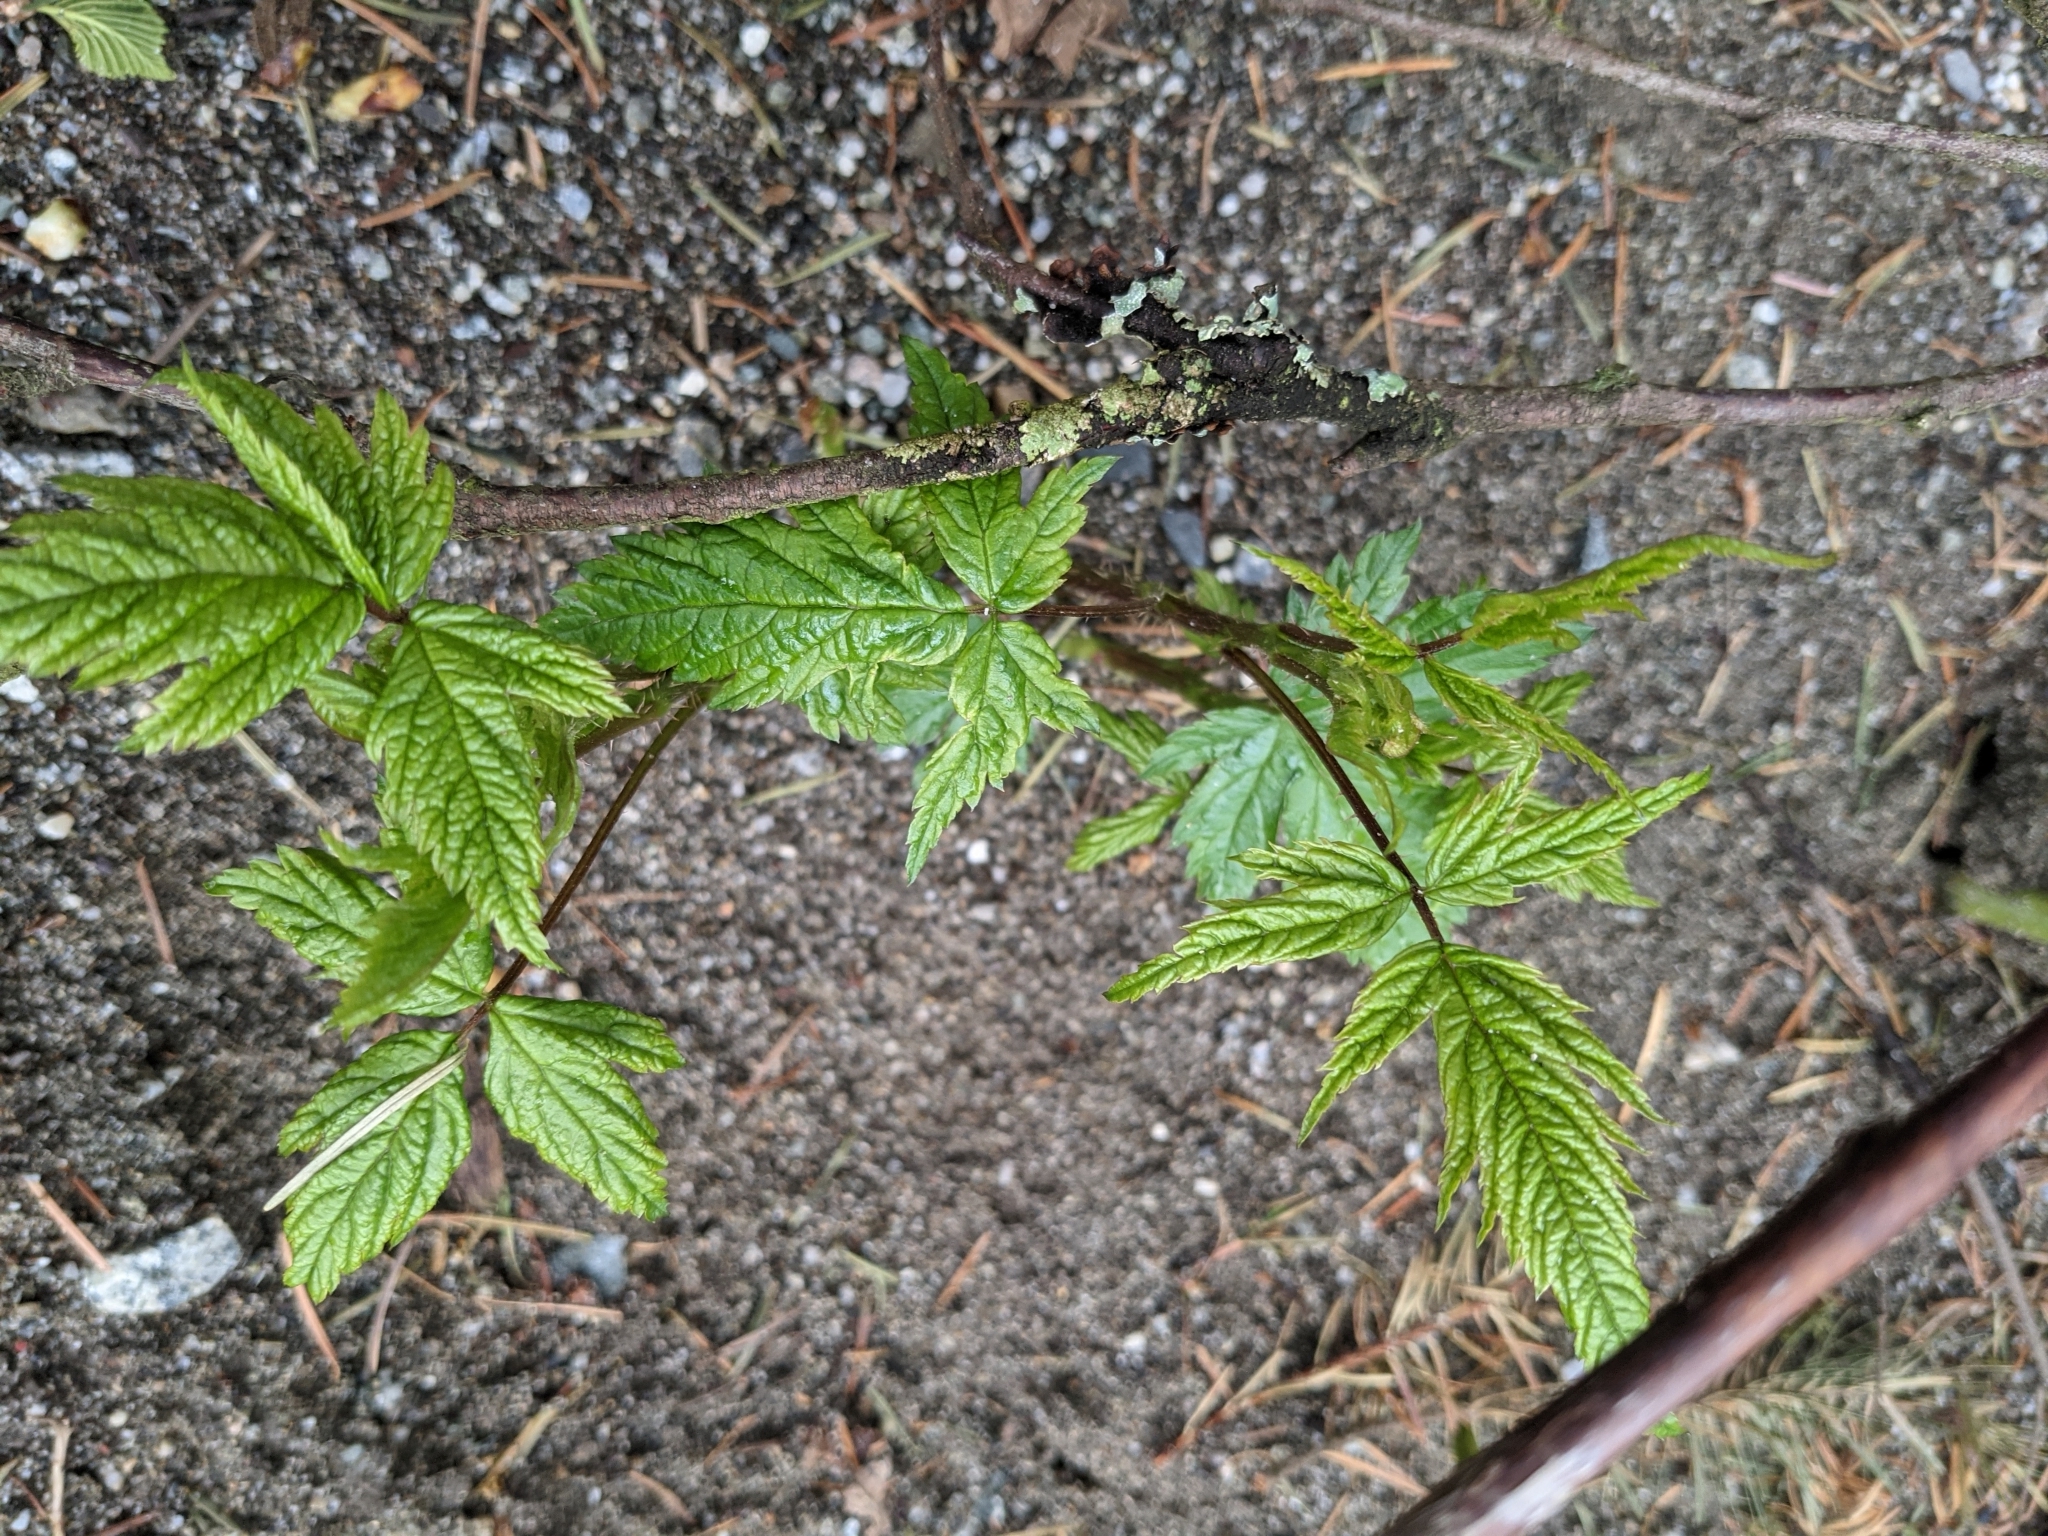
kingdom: Plantae
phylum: Tracheophyta
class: Magnoliopsida
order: Rosales
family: Rosaceae
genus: Rubus
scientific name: Rubus spectabilis
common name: Salmonberry
